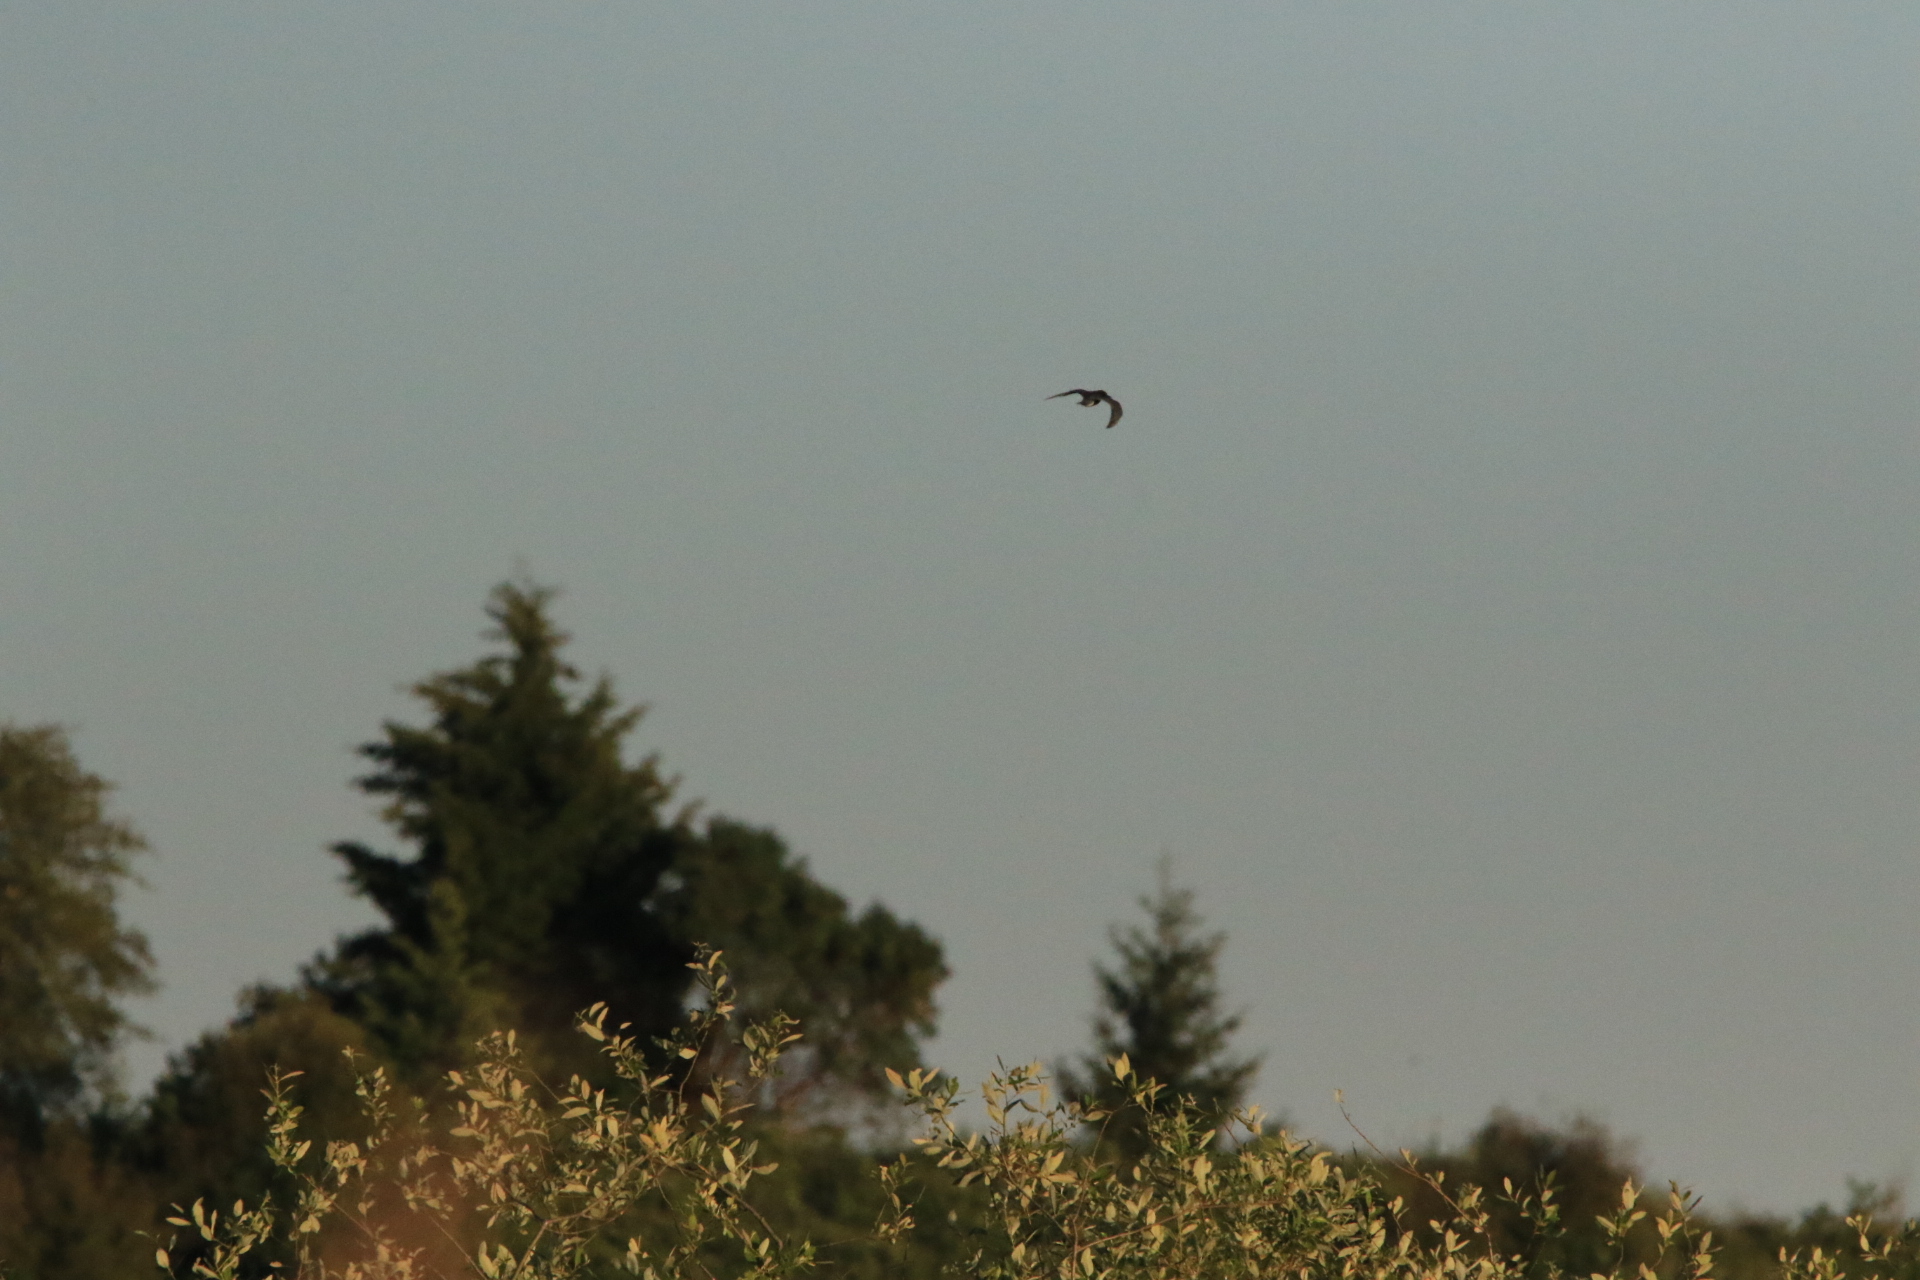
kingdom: Animalia
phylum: Chordata
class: Aves
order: Charadriiformes
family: Laridae
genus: Chlidonias
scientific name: Chlidonias niger
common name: Black tern
